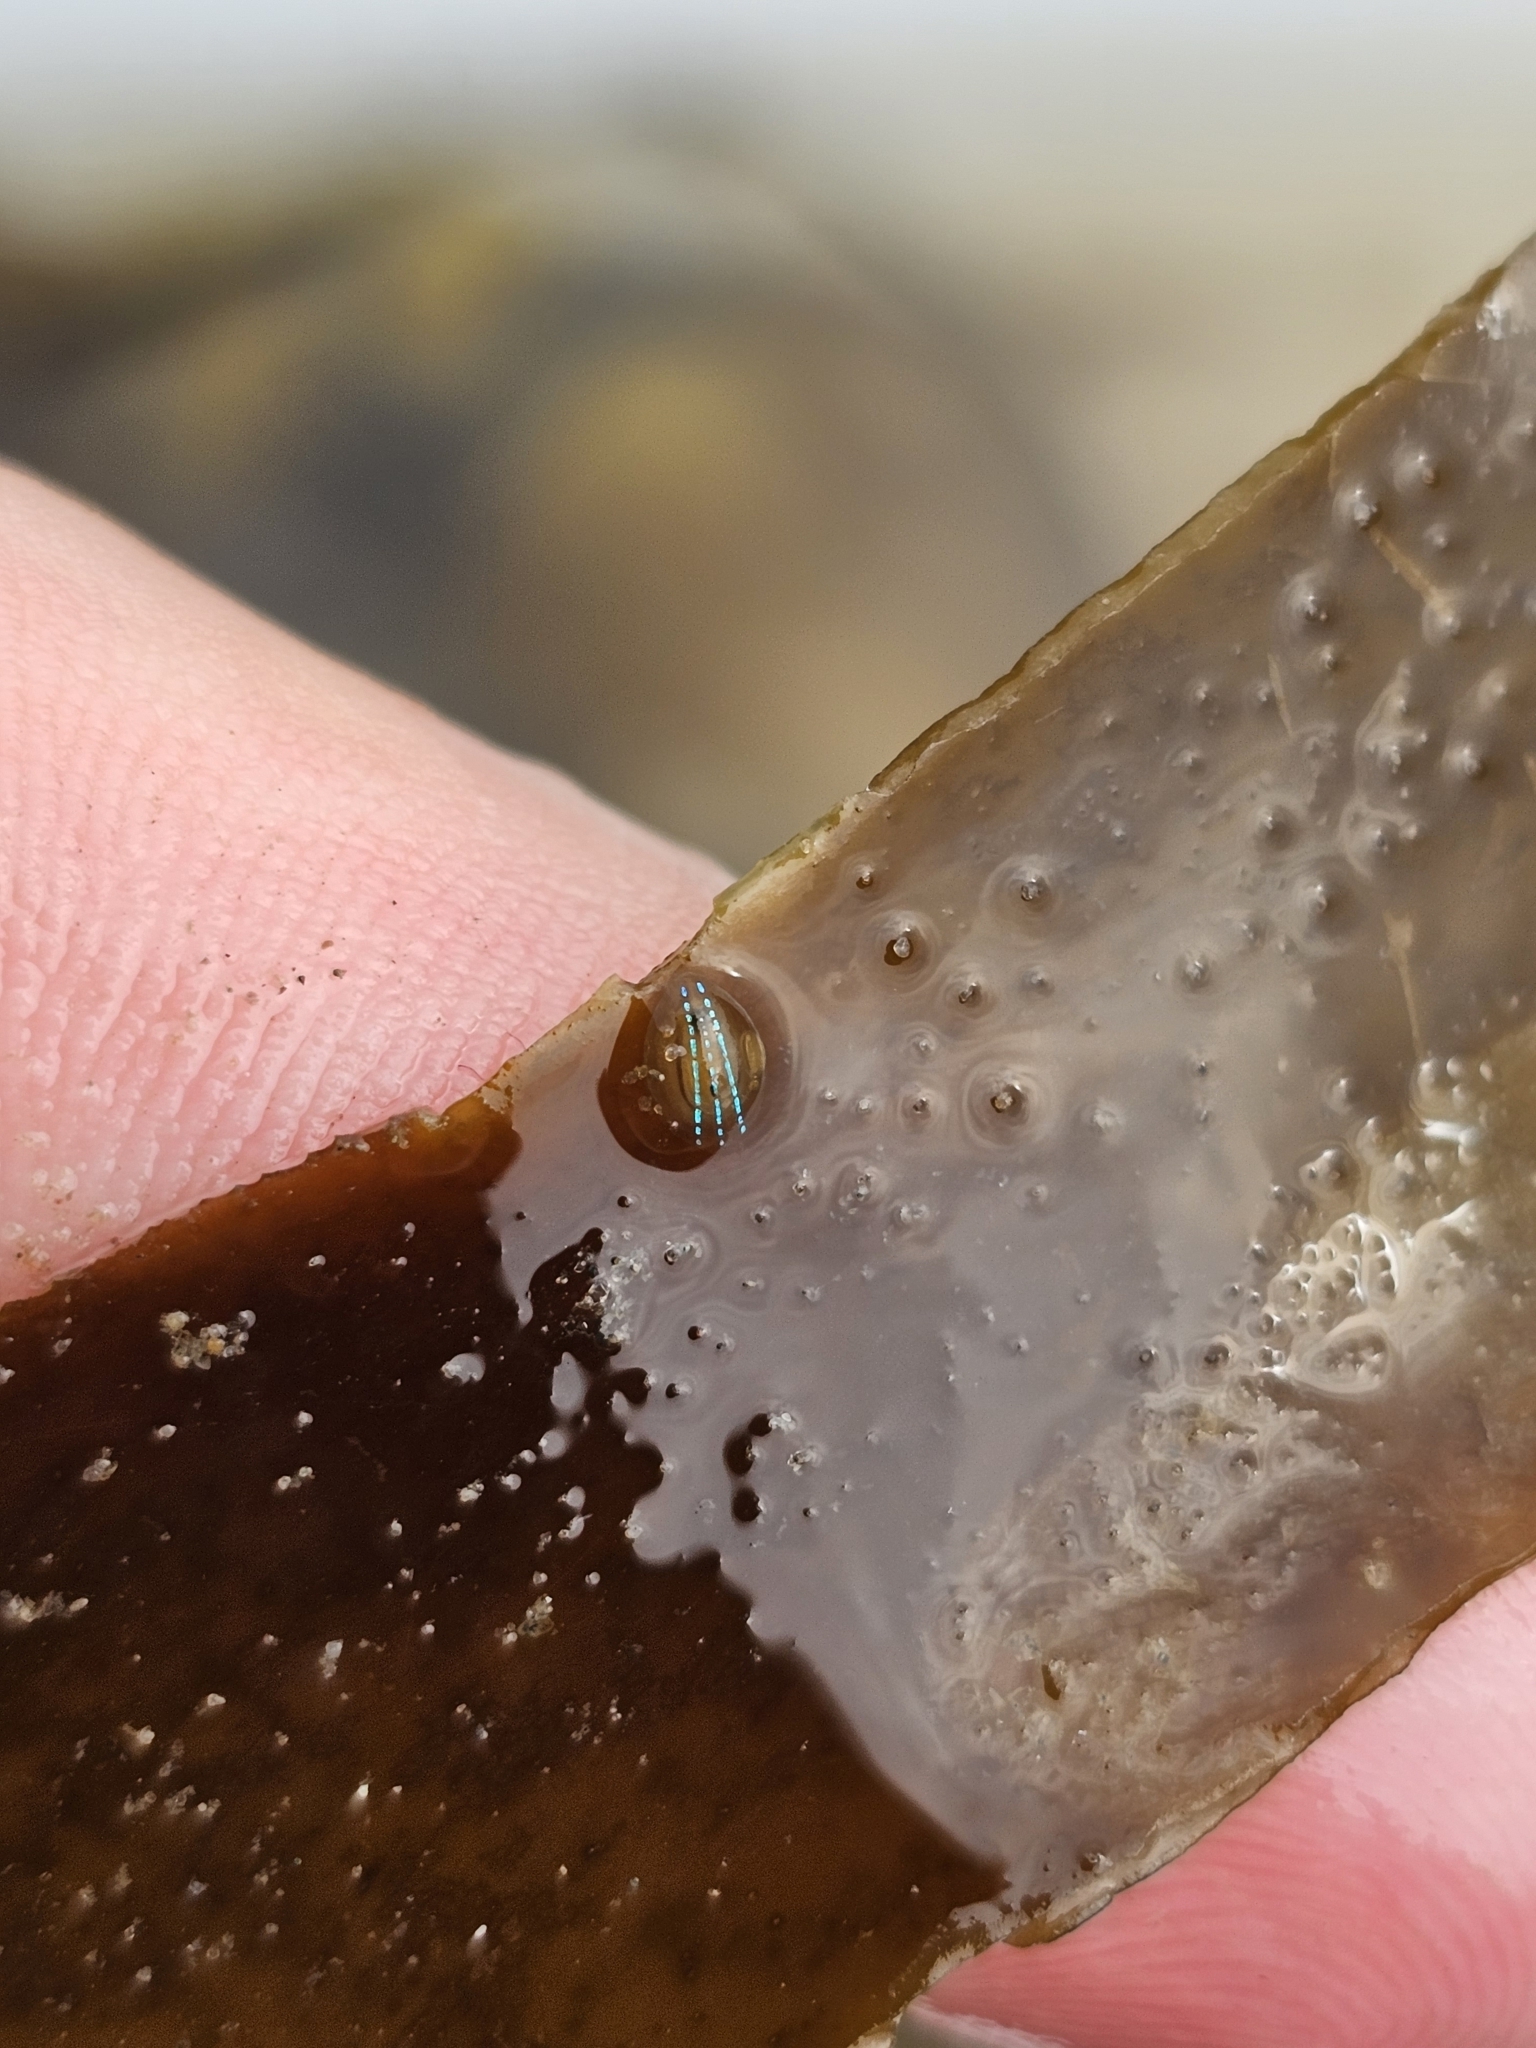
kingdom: Animalia
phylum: Mollusca
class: Gastropoda
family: Patellidae
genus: Patella
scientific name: Patella pellucida
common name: Blue-rayed limpet
